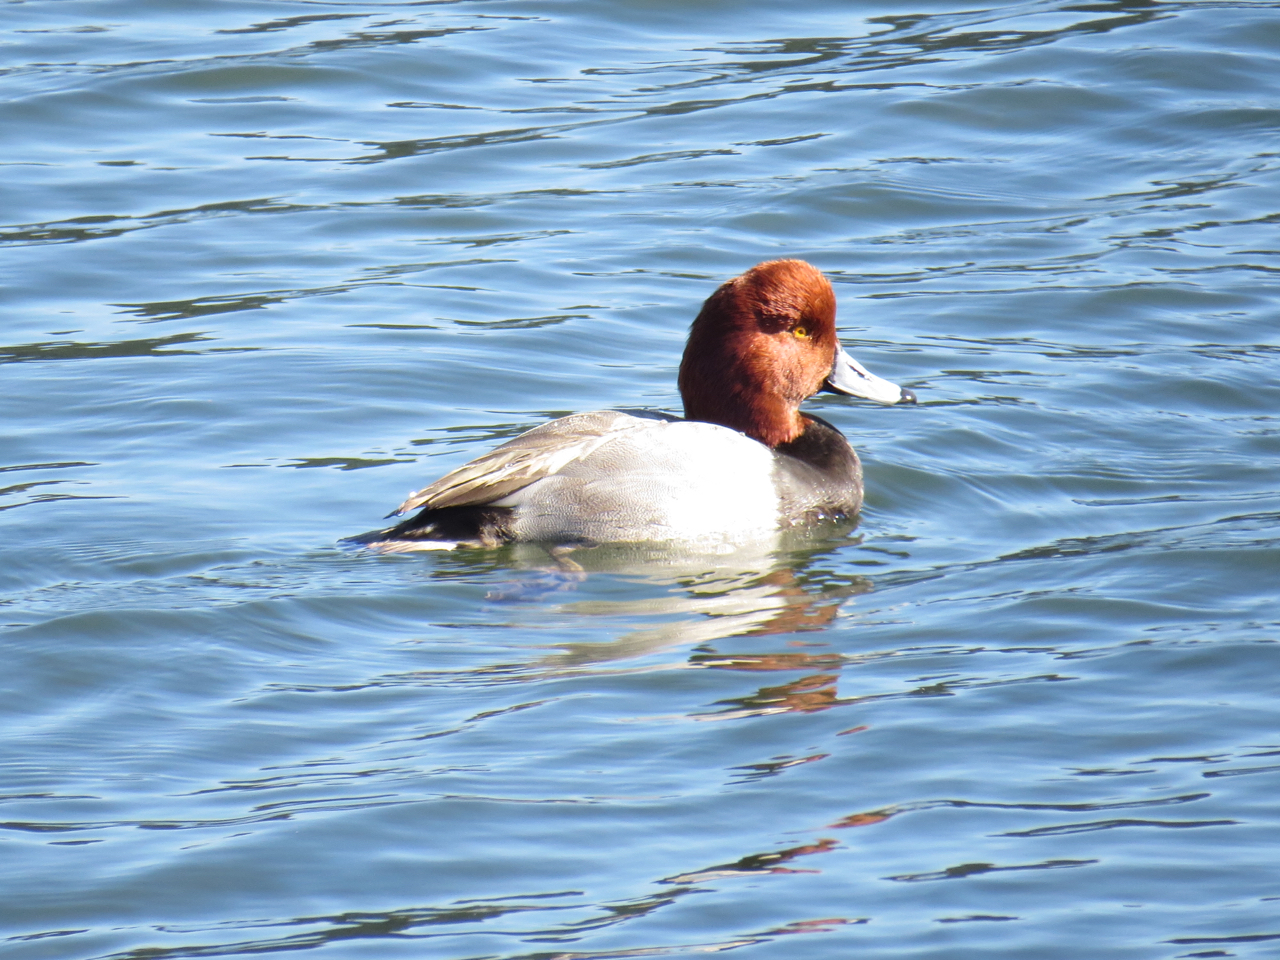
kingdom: Animalia
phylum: Chordata
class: Aves
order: Anseriformes
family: Anatidae
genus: Aythya
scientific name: Aythya americana
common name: Redhead
